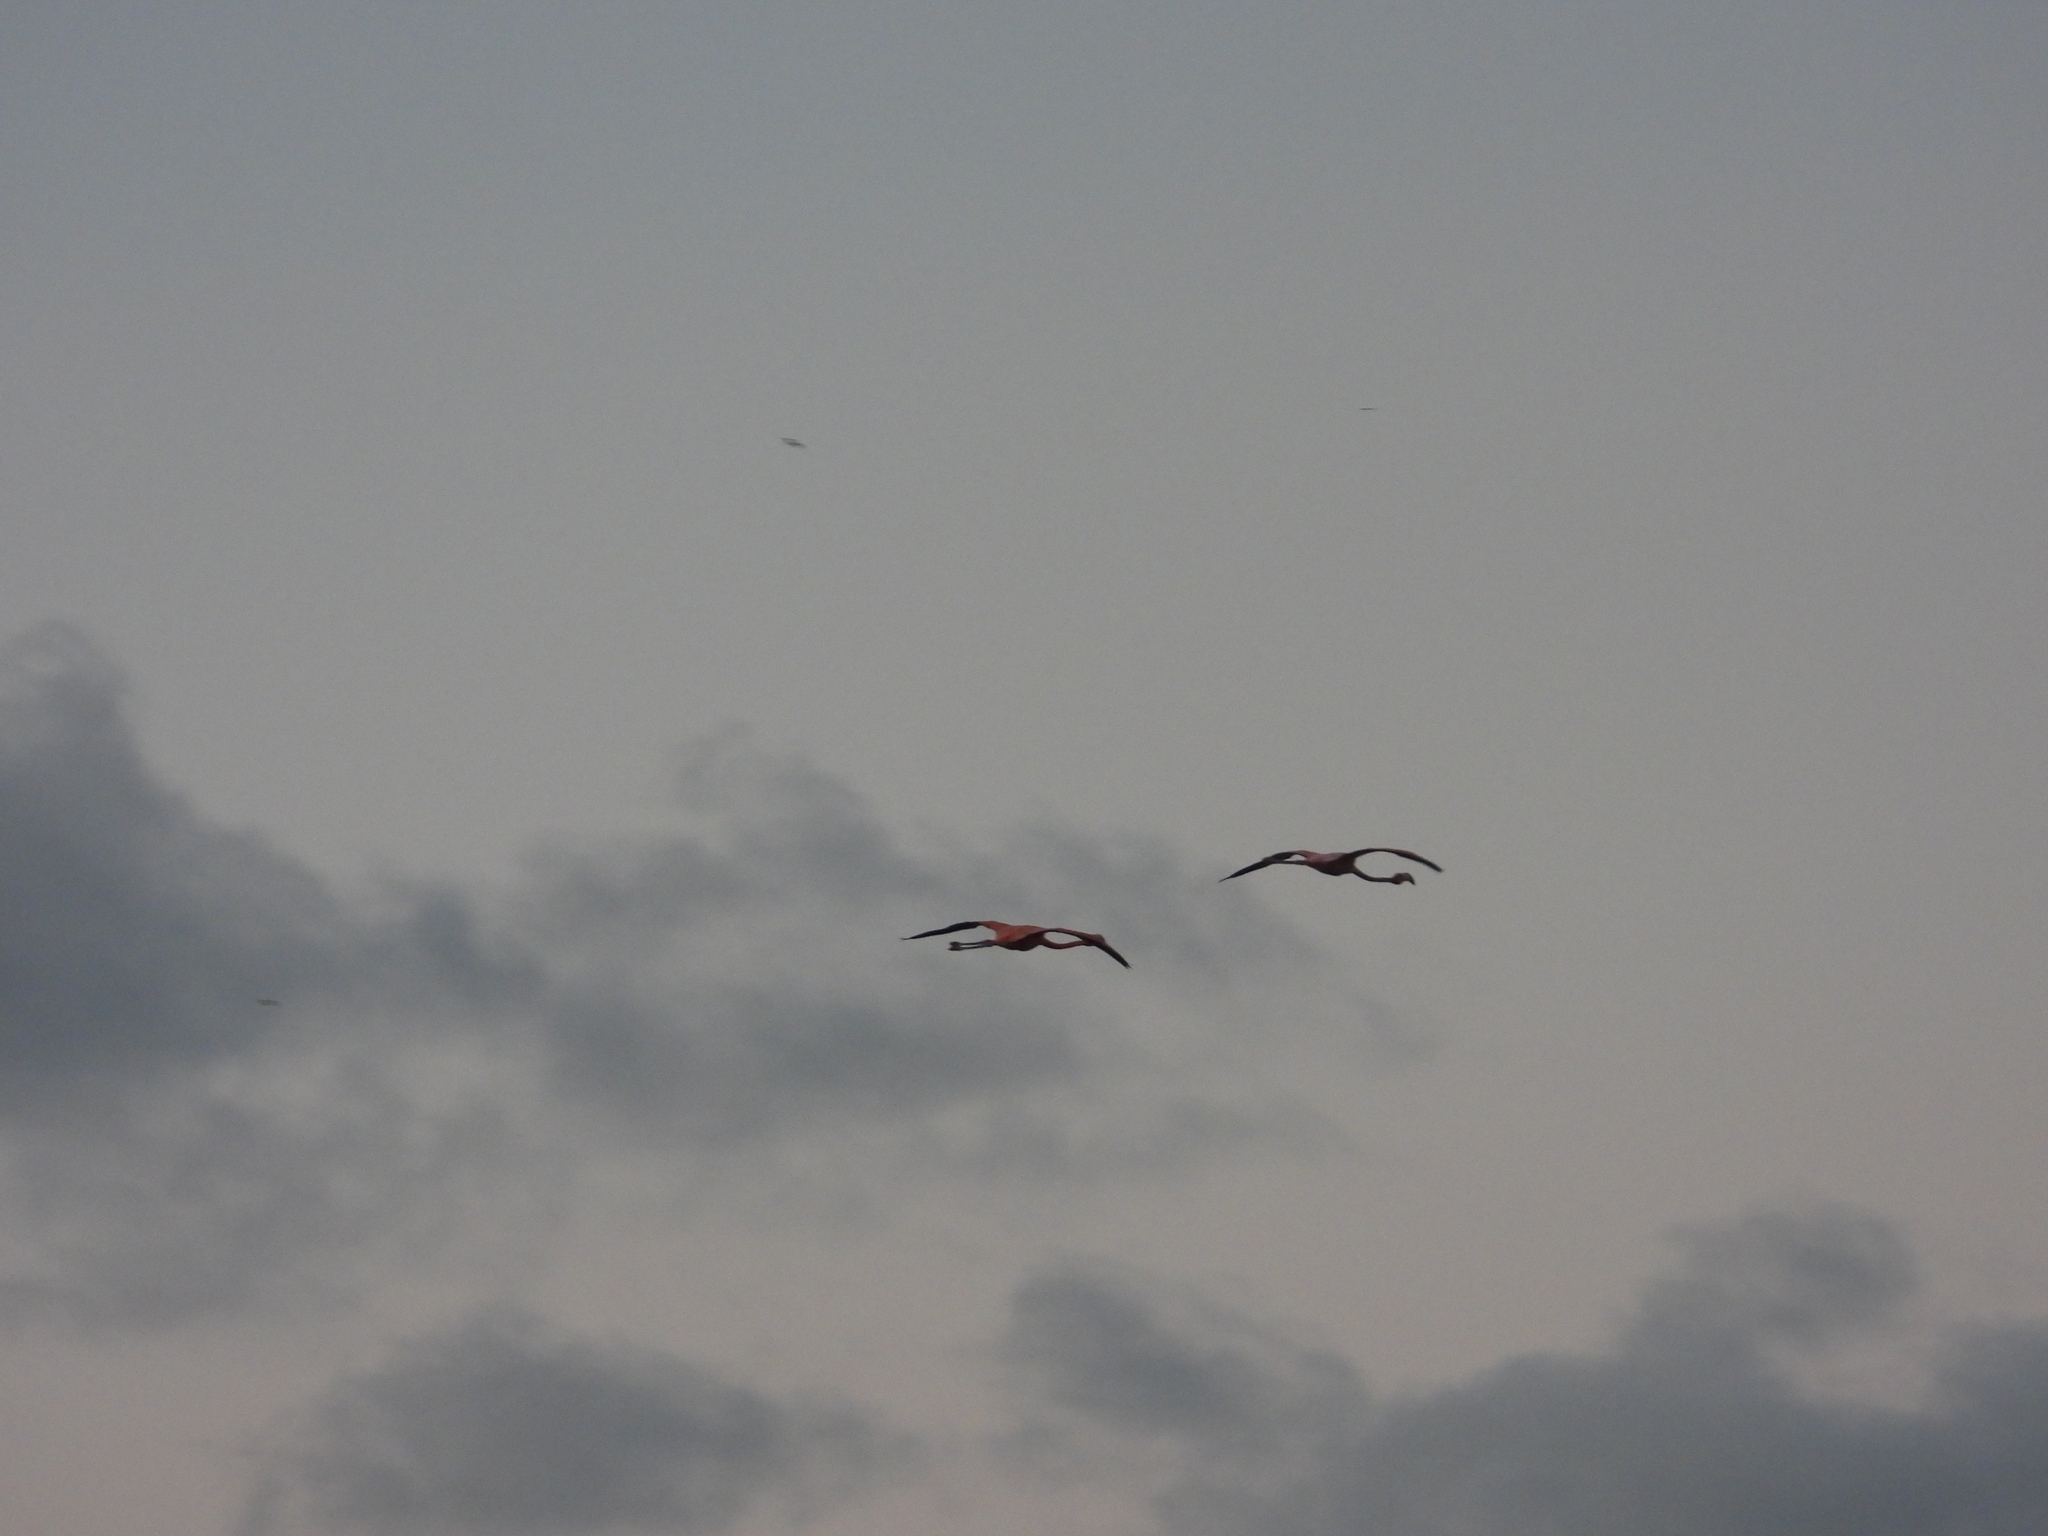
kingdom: Animalia
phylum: Chordata
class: Aves
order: Phoenicopteriformes
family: Phoenicopteridae
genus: Phoenicopterus
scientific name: Phoenicopterus ruber
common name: American flamingo
